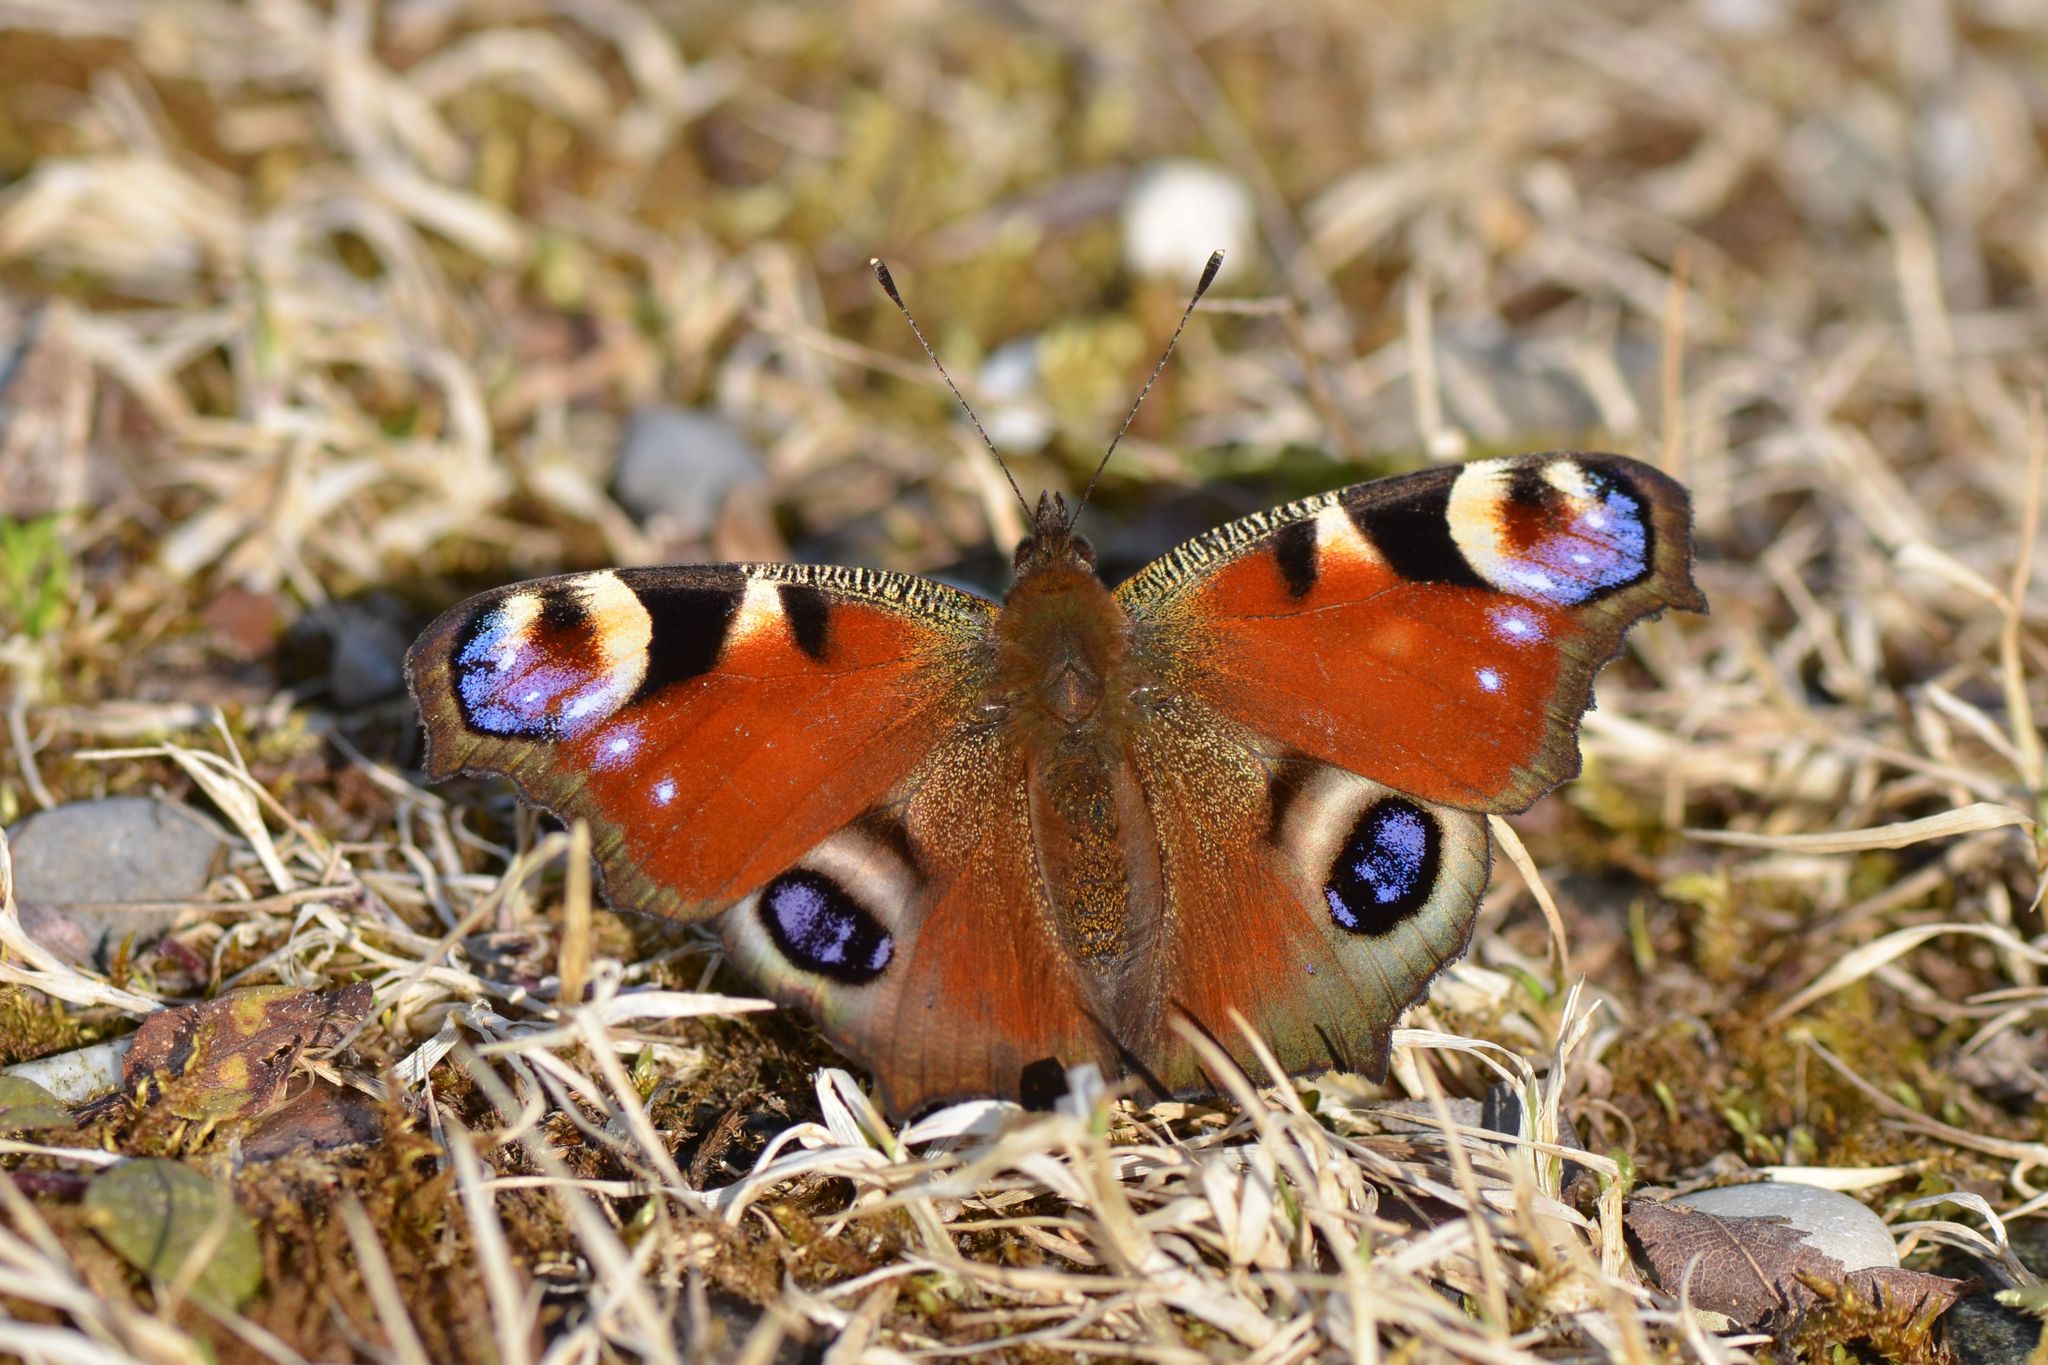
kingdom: Animalia
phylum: Arthropoda
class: Insecta
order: Lepidoptera
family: Nymphalidae
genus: Aglais
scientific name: Aglais io
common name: Peacock
